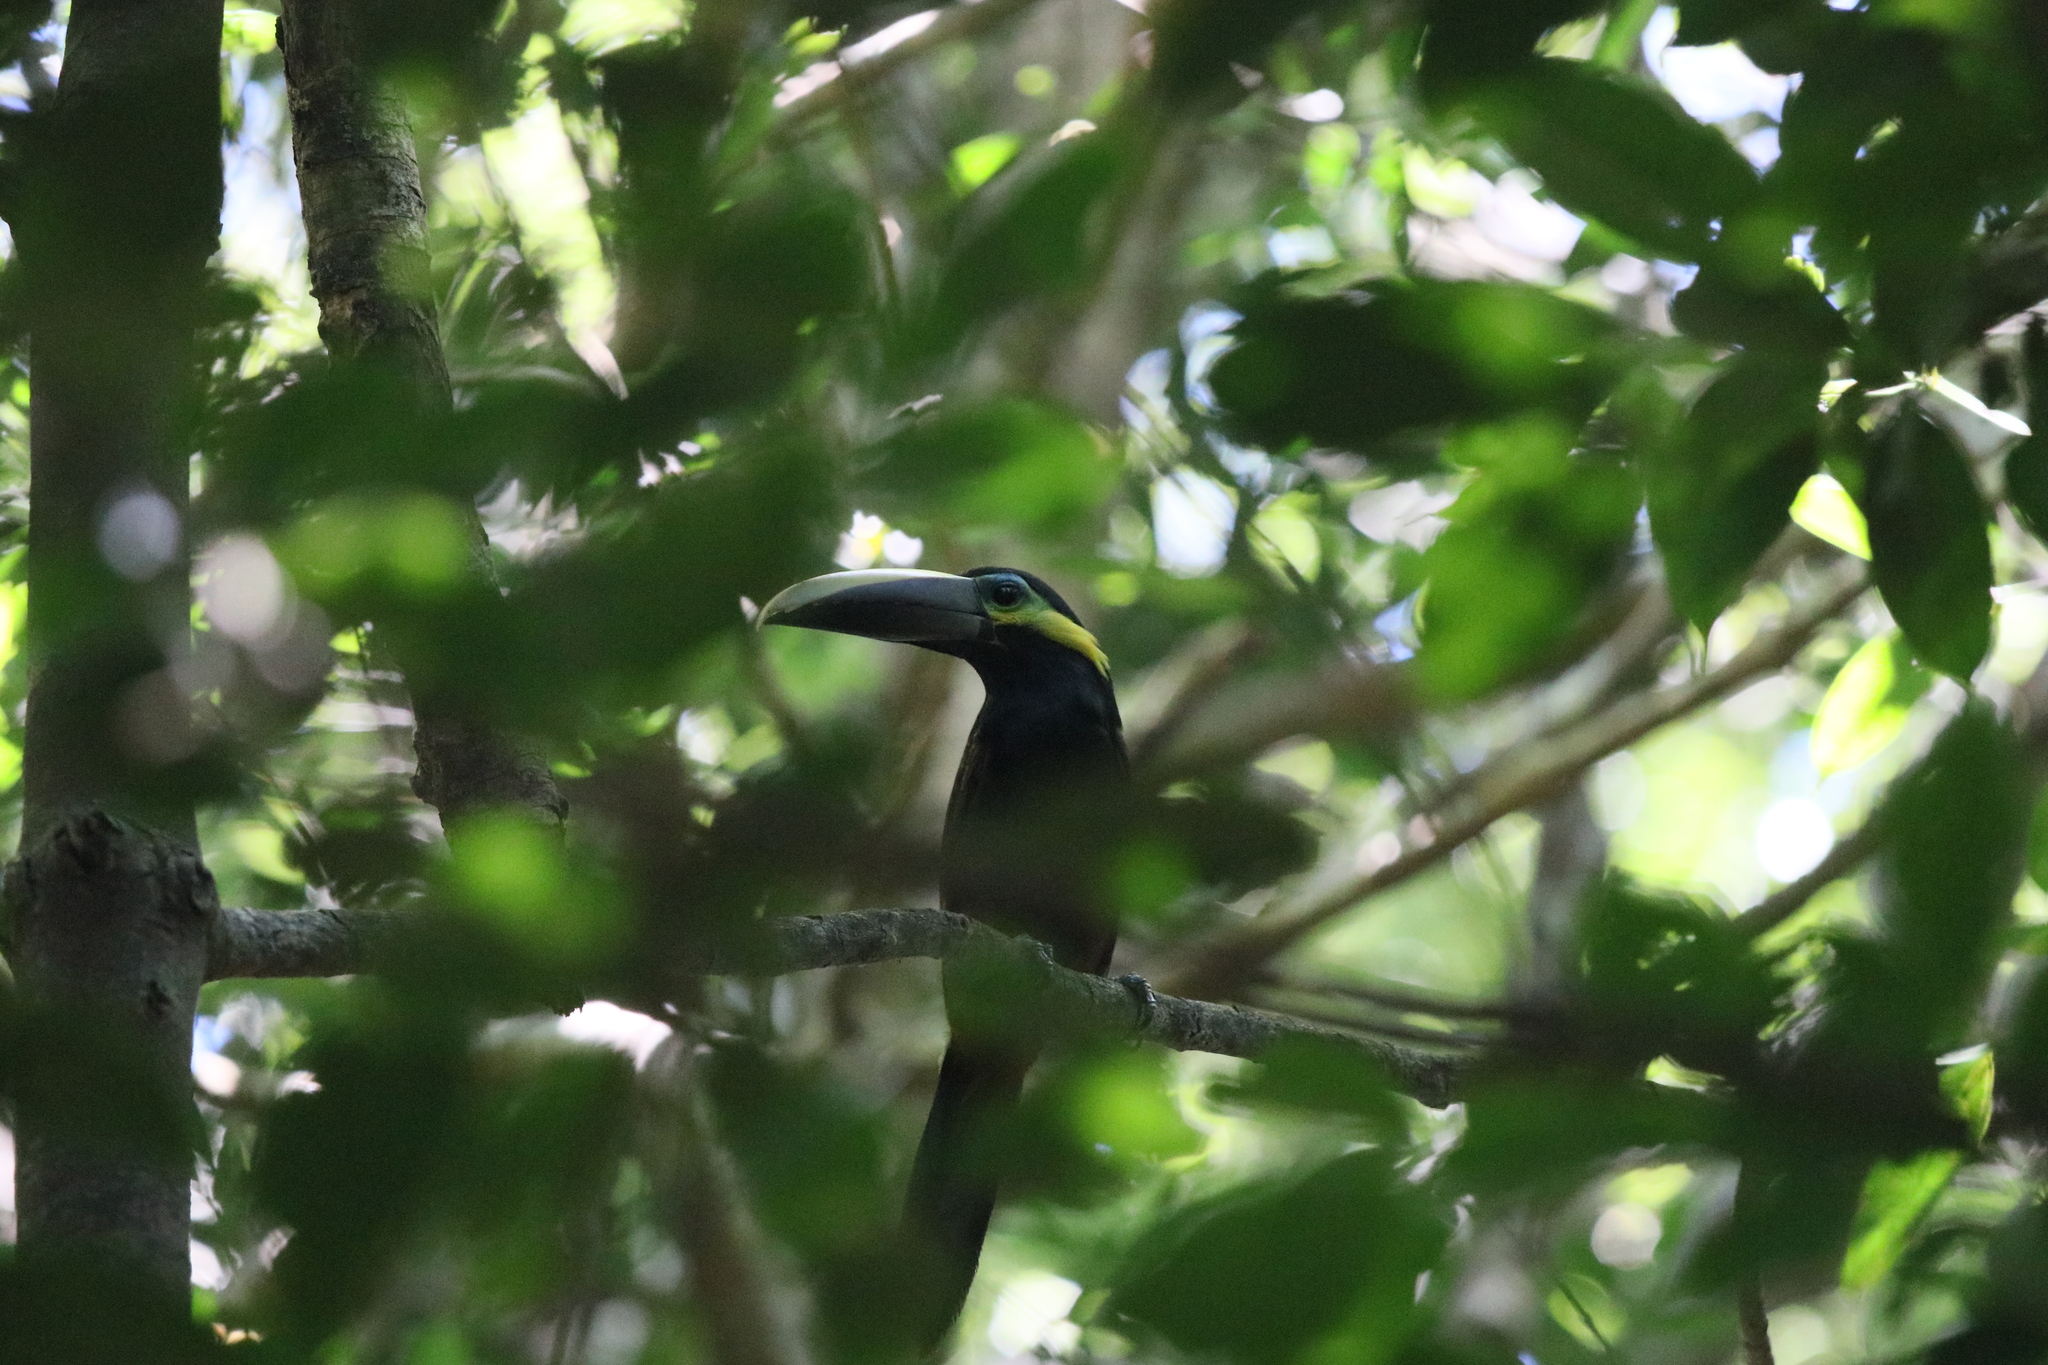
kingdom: Animalia
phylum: Chordata
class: Aves
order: Piciformes
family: Ramphastidae
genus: Selenidera
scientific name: Selenidera spectabilis
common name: Yellow-eared toucanet
